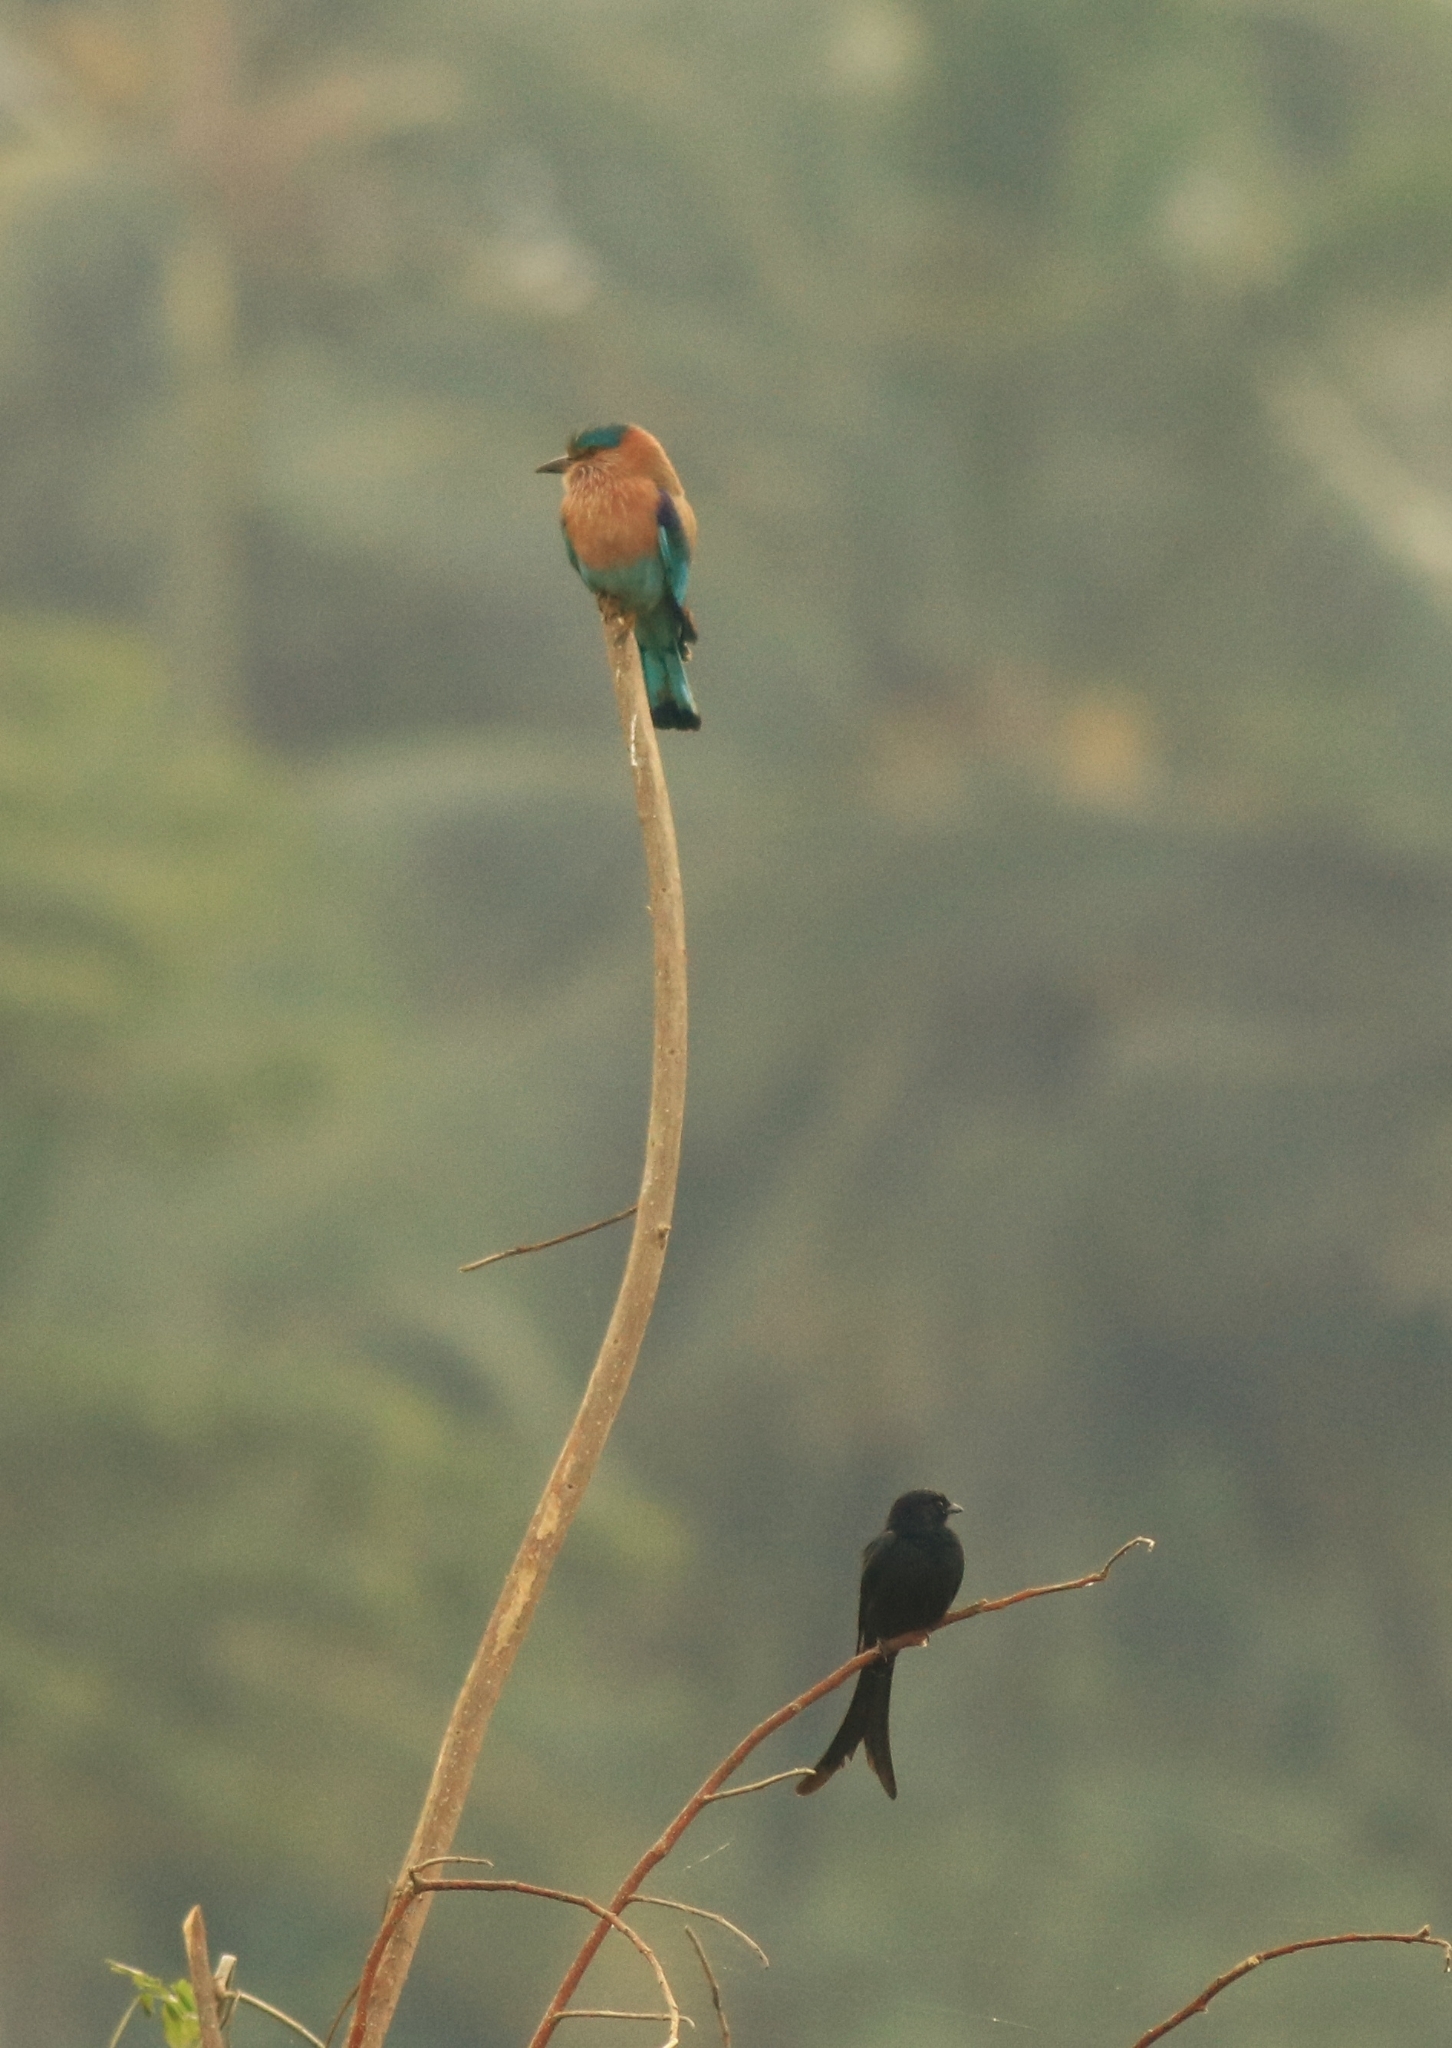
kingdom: Animalia
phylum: Chordata
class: Aves
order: Passeriformes
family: Dicruridae
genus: Dicrurus
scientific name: Dicrurus macrocercus
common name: Black drongo
